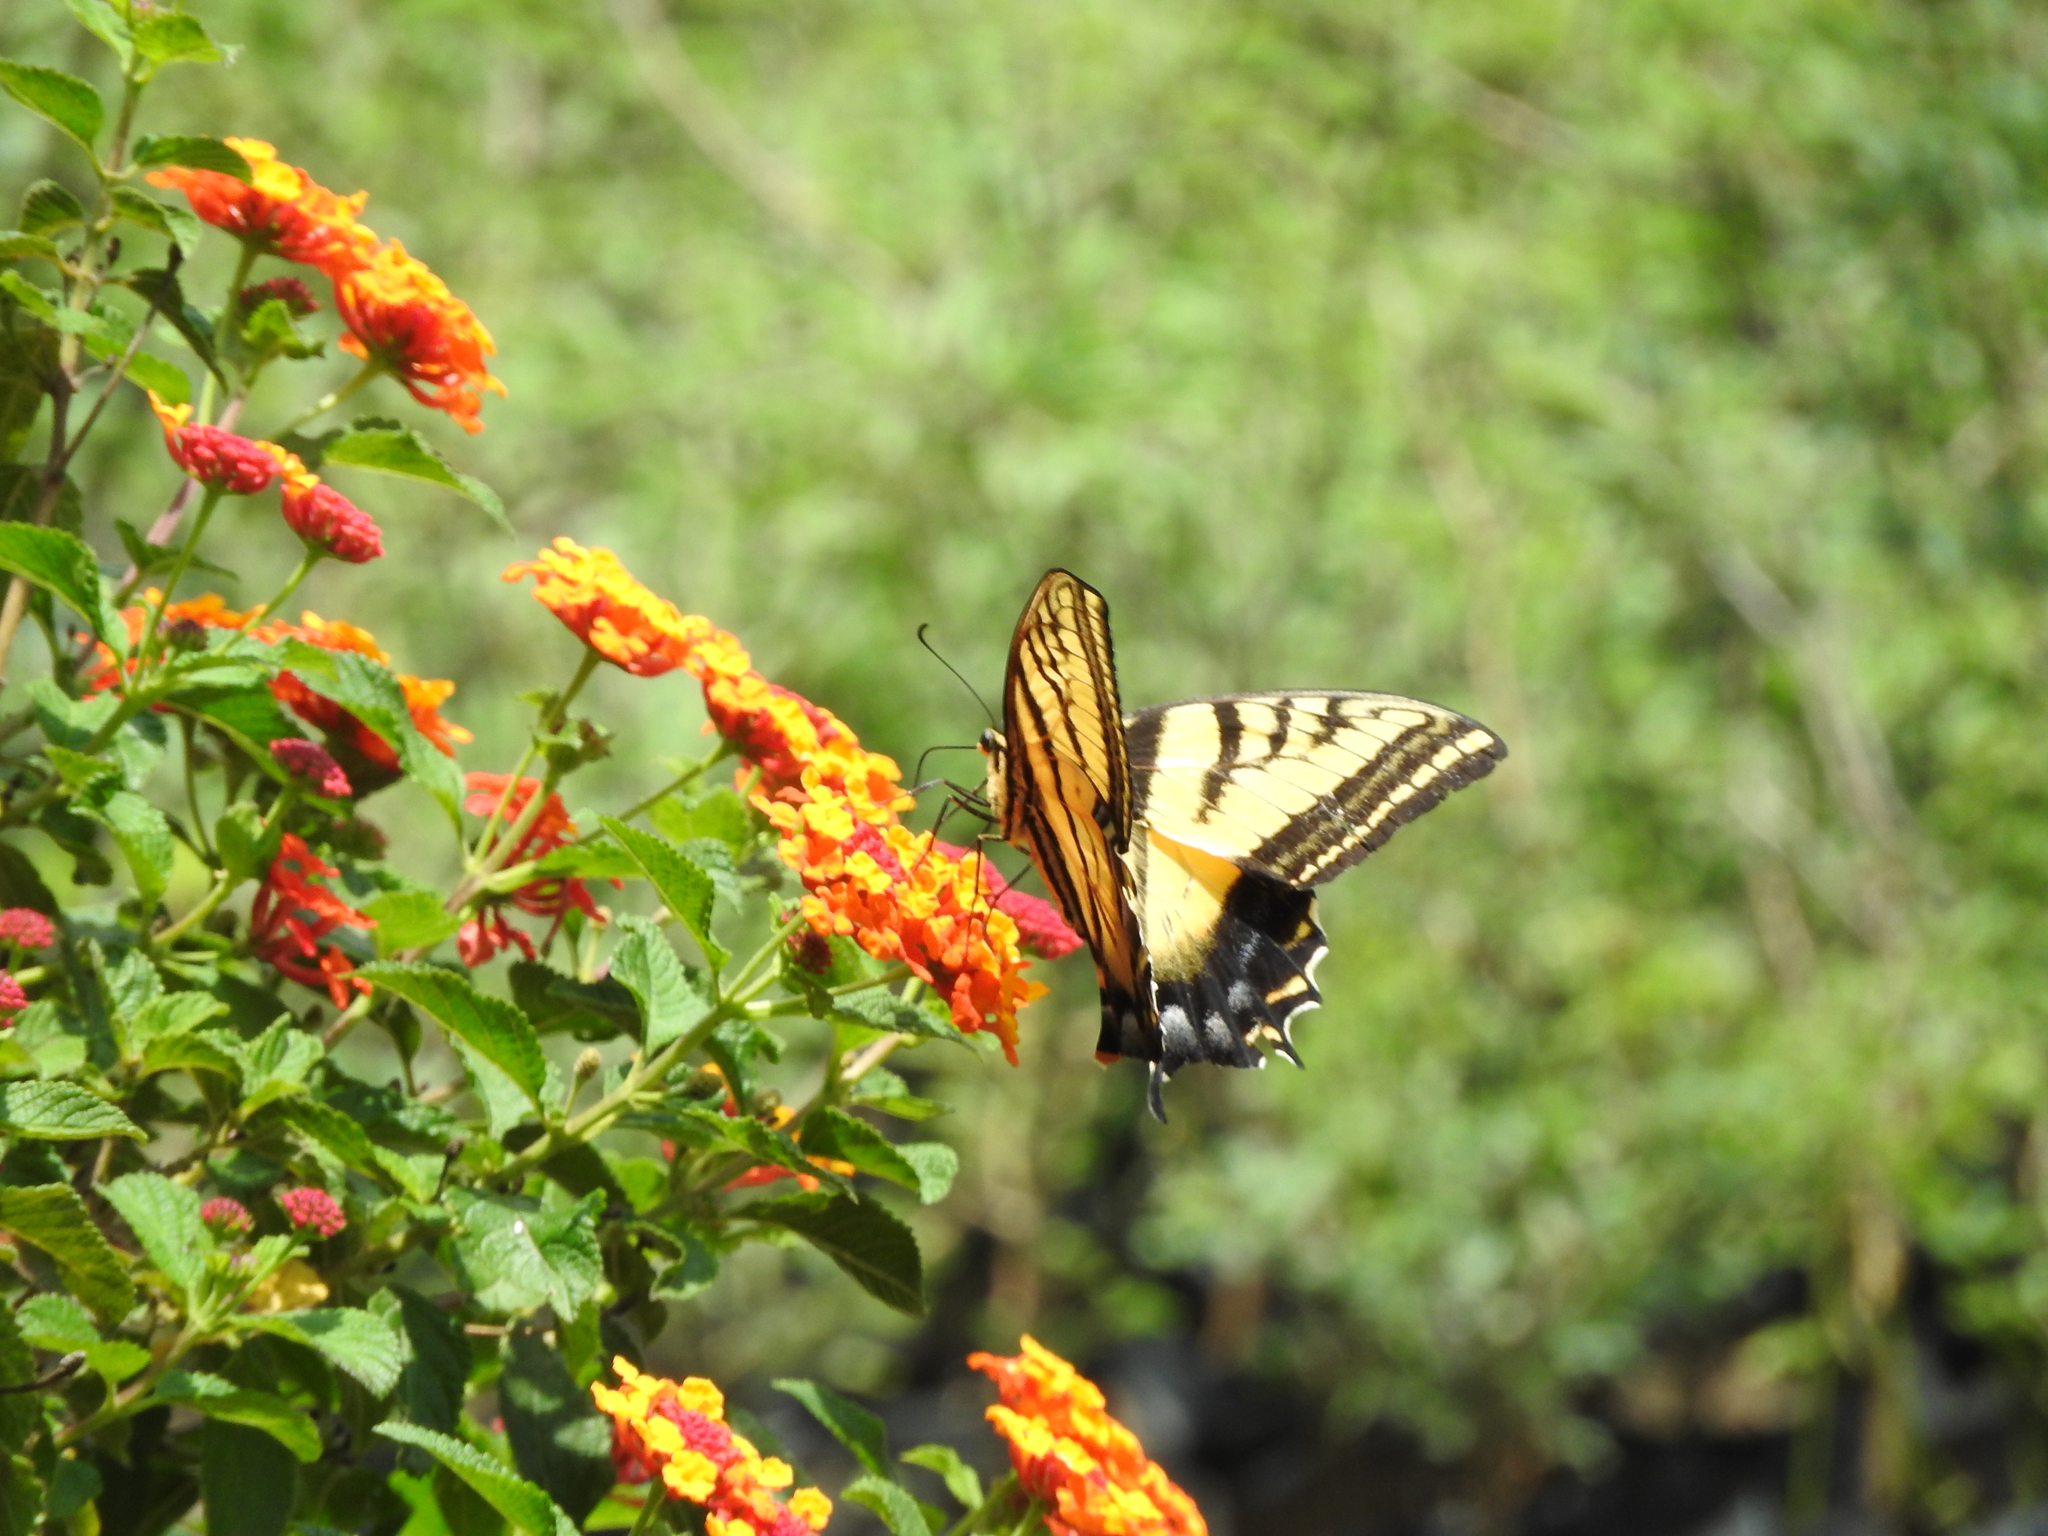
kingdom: Animalia
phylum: Arthropoda
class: Insecta
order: Lepidoptera
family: Papilionidae
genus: Papilio
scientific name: Papilio multicaudata
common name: Two-tailed tiger swallowtail
